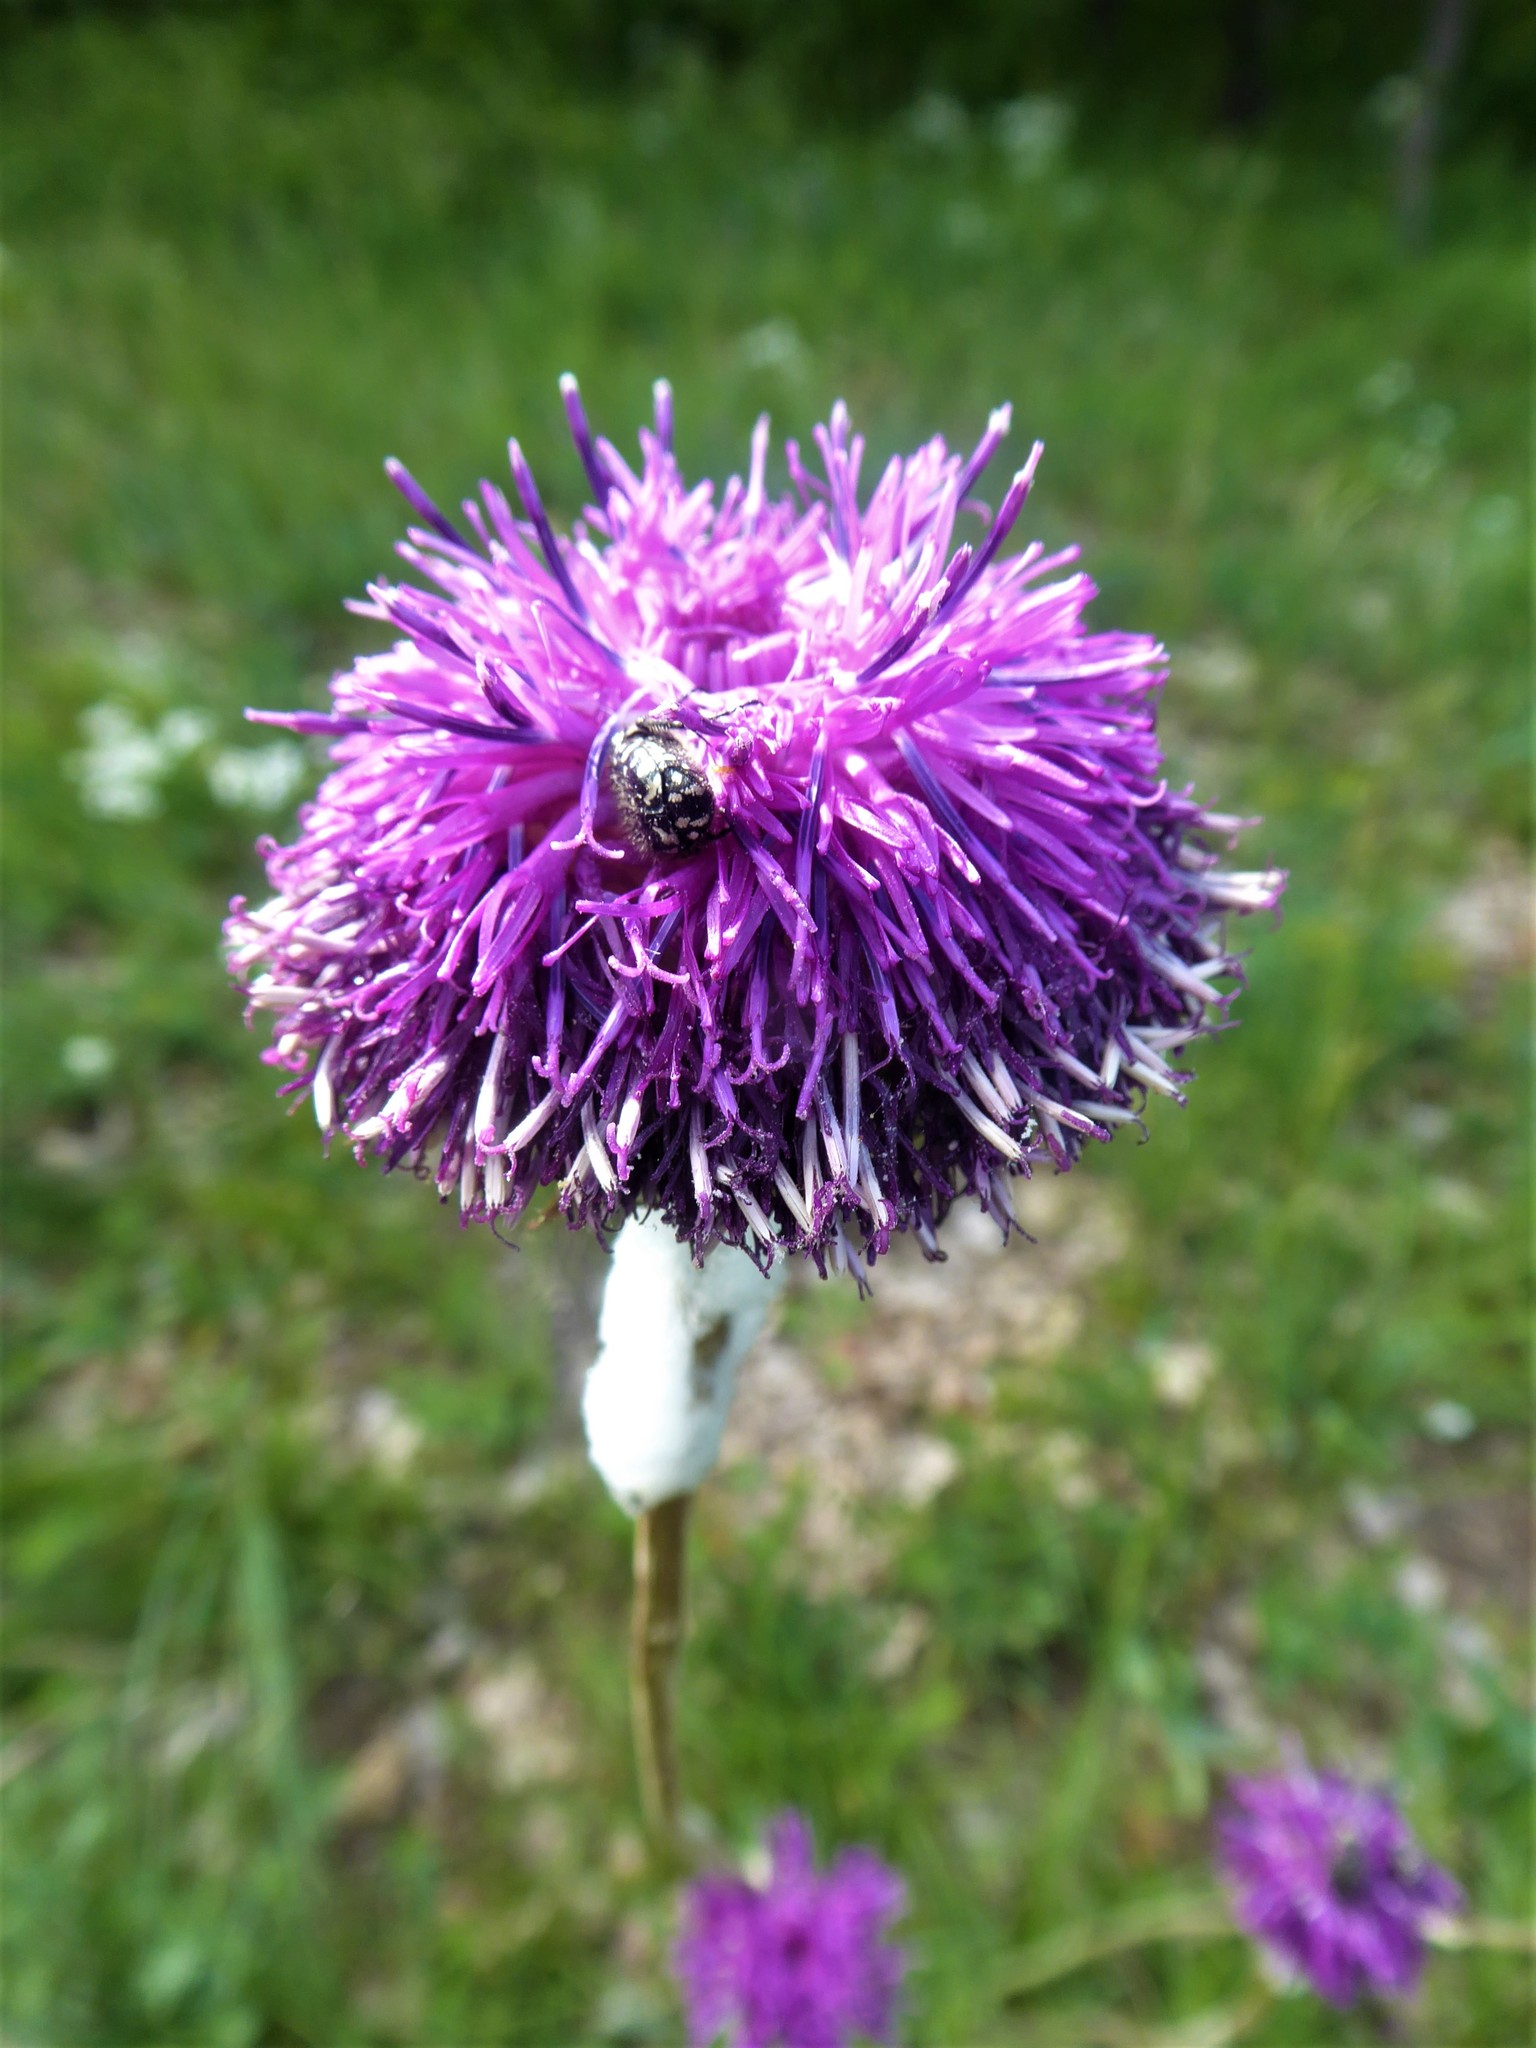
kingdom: Plantae
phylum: Tracheophyta
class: Magnoliopsida
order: Asterales
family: Asteraceae
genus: Jurinea
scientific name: Jurinea mollis
